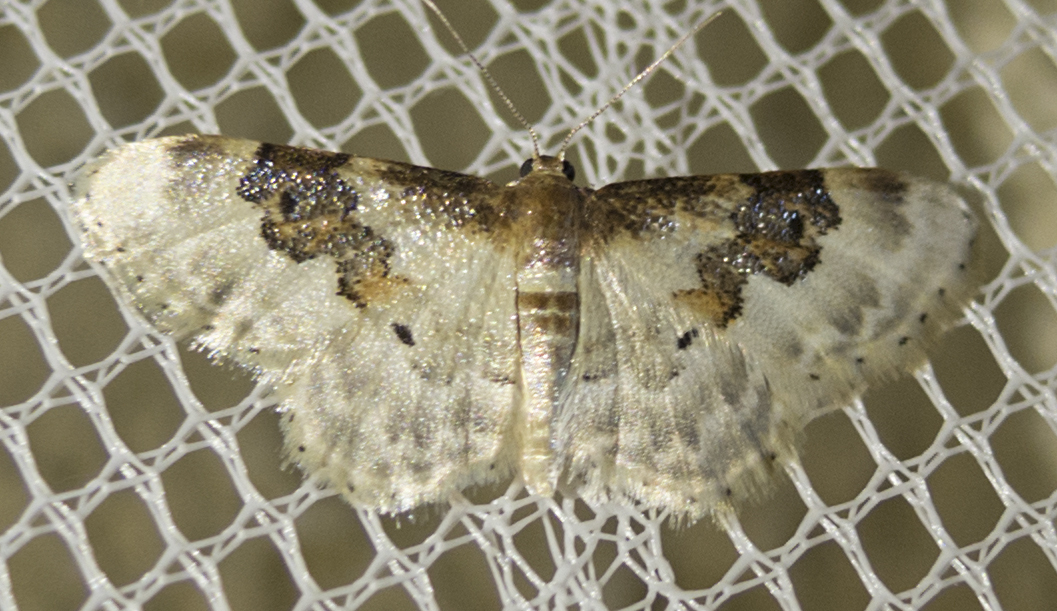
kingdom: Animalia
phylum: Arthropoda
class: Insecta
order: Lepidoptera
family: Geometridae
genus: Idaea
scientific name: Idaea rusticata
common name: Least carpet
